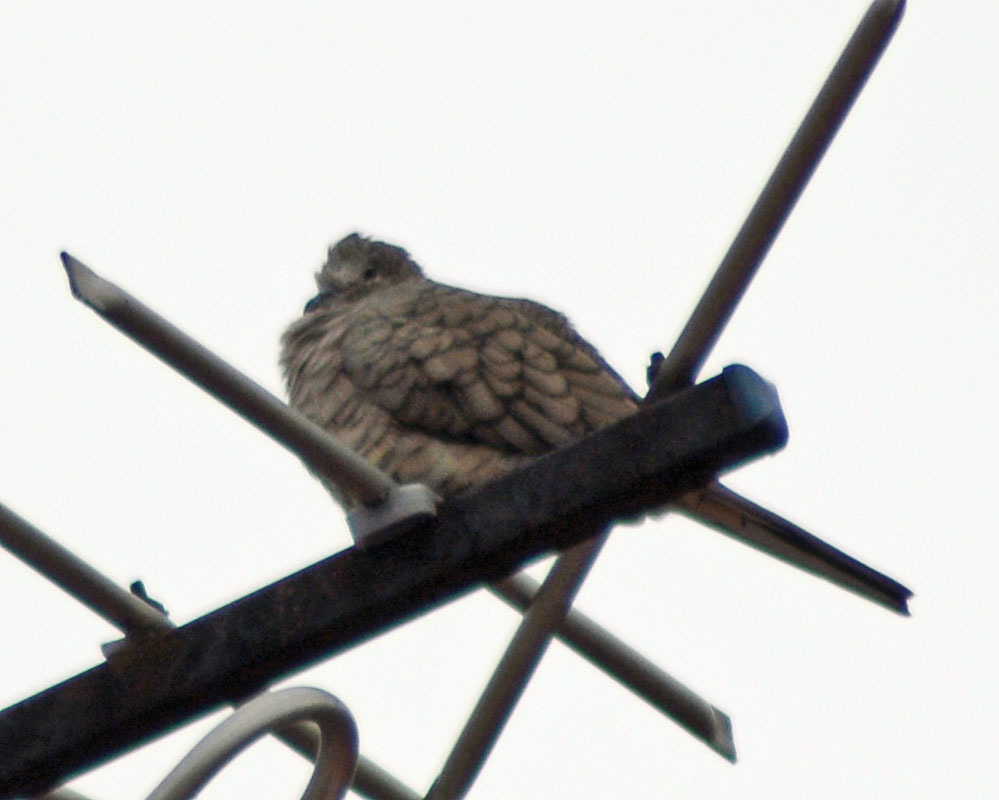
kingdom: Animalia
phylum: Chordata
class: Aves
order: Columbiformes
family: Columbidae
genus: Columbina
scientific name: Columbina inca
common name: Inca dove
